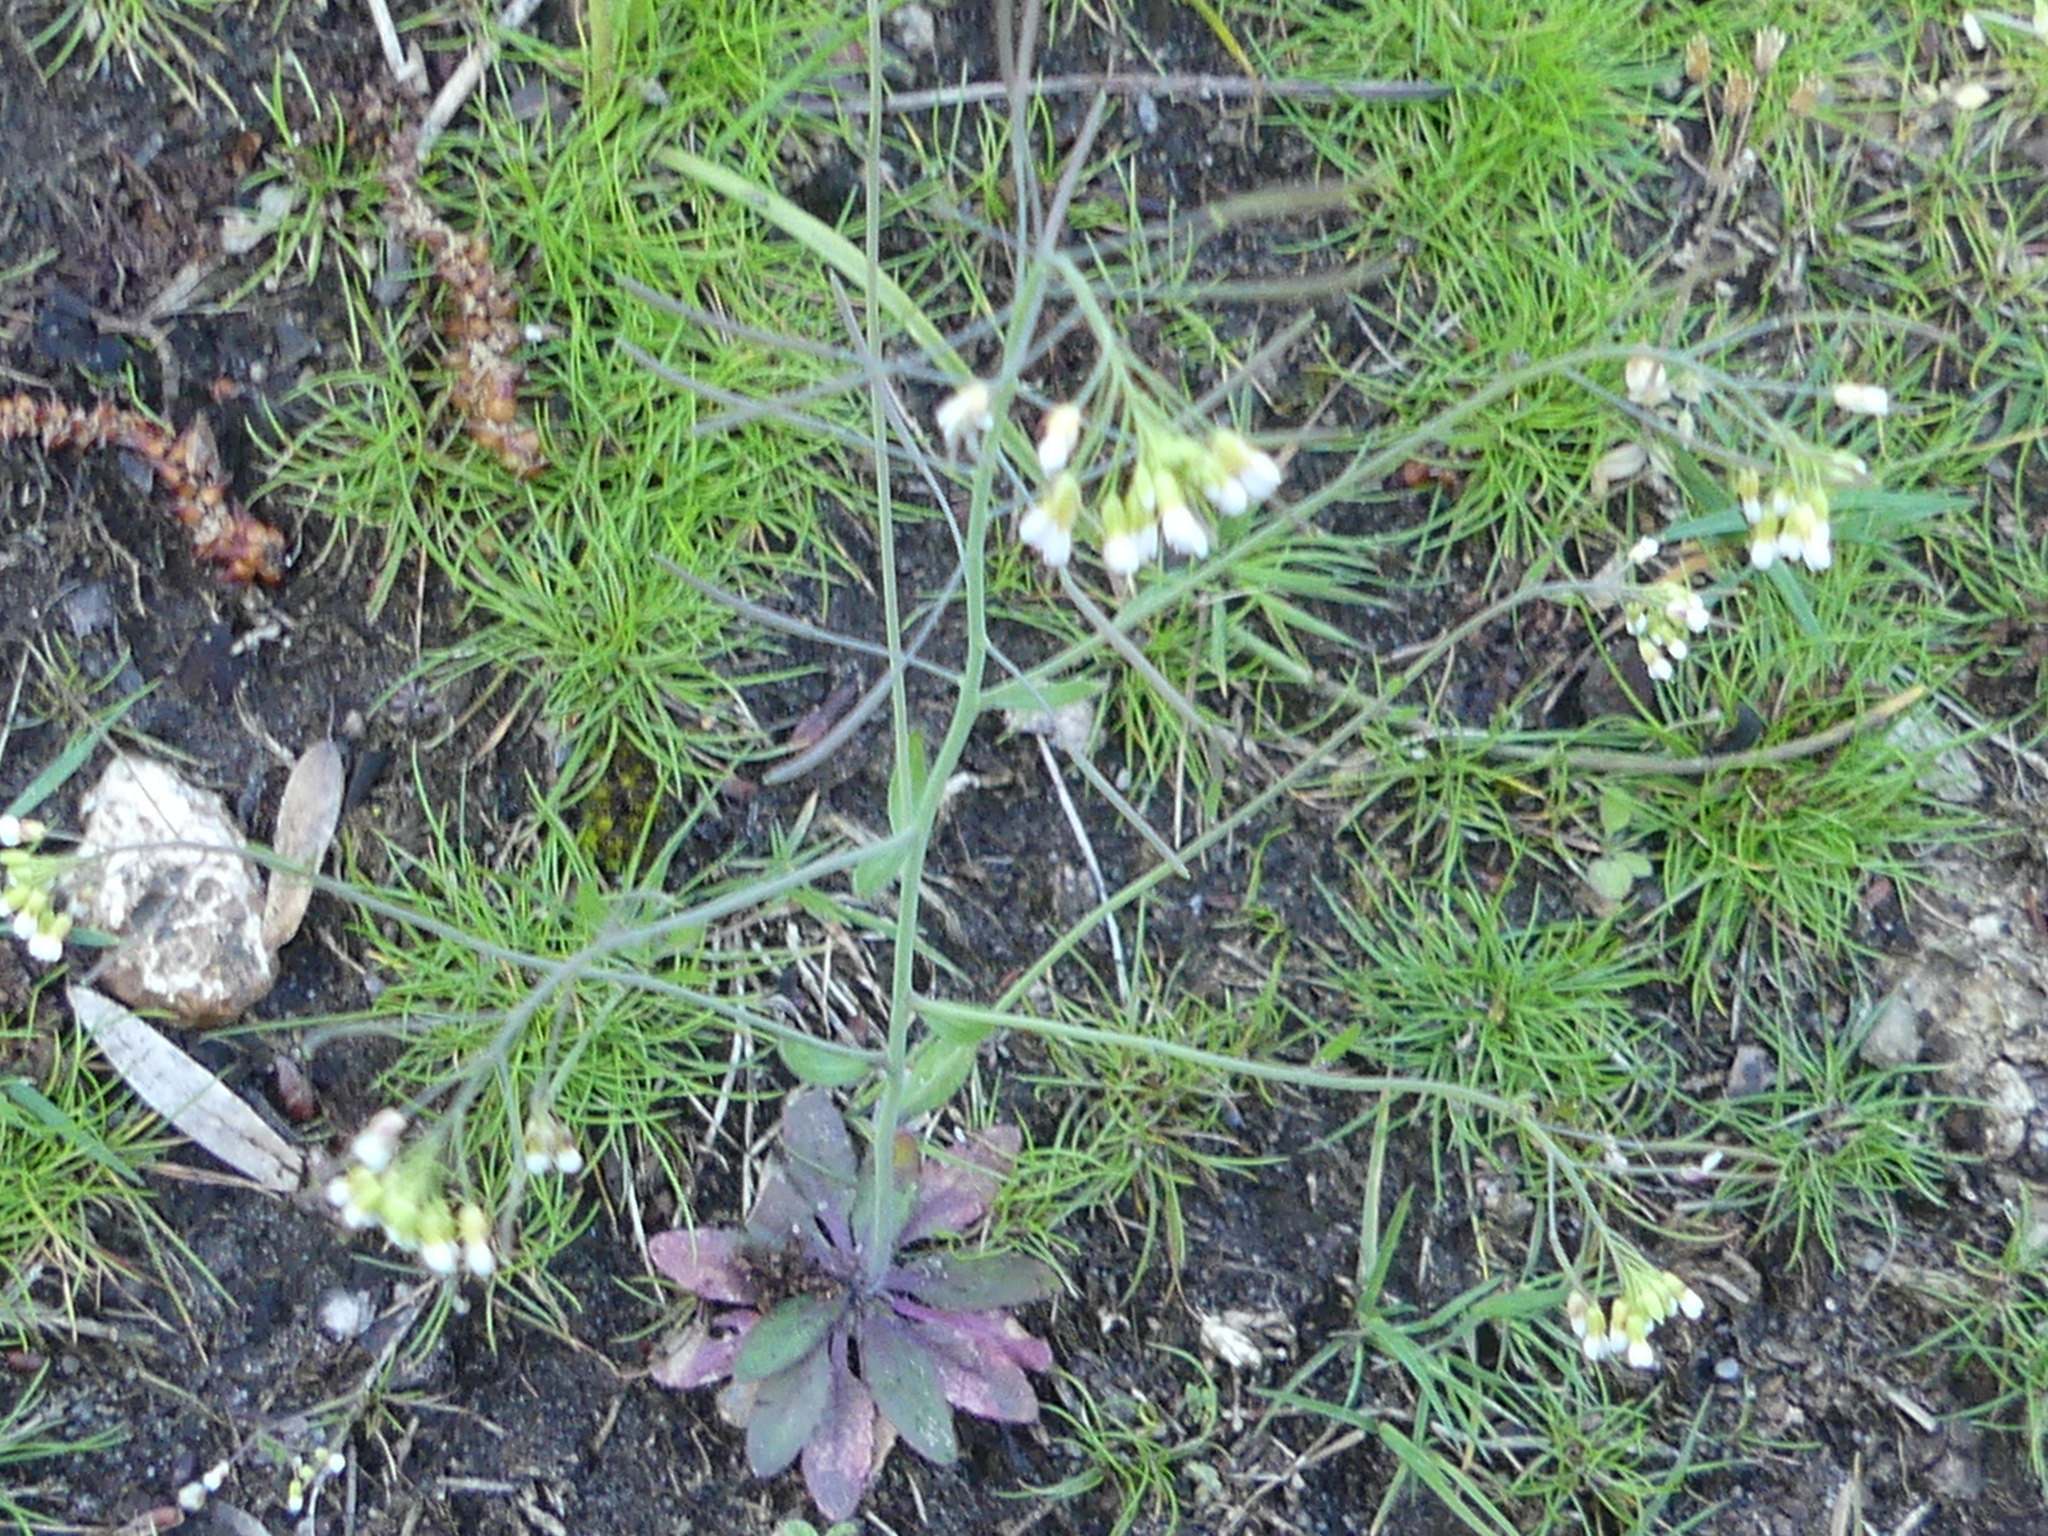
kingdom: Plantae
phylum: Tracheophyta
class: Magnoliopsida
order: Brassicales
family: Brassicaceae
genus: Arabidopsis
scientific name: Arabidopsis thaliana
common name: Thale cress
